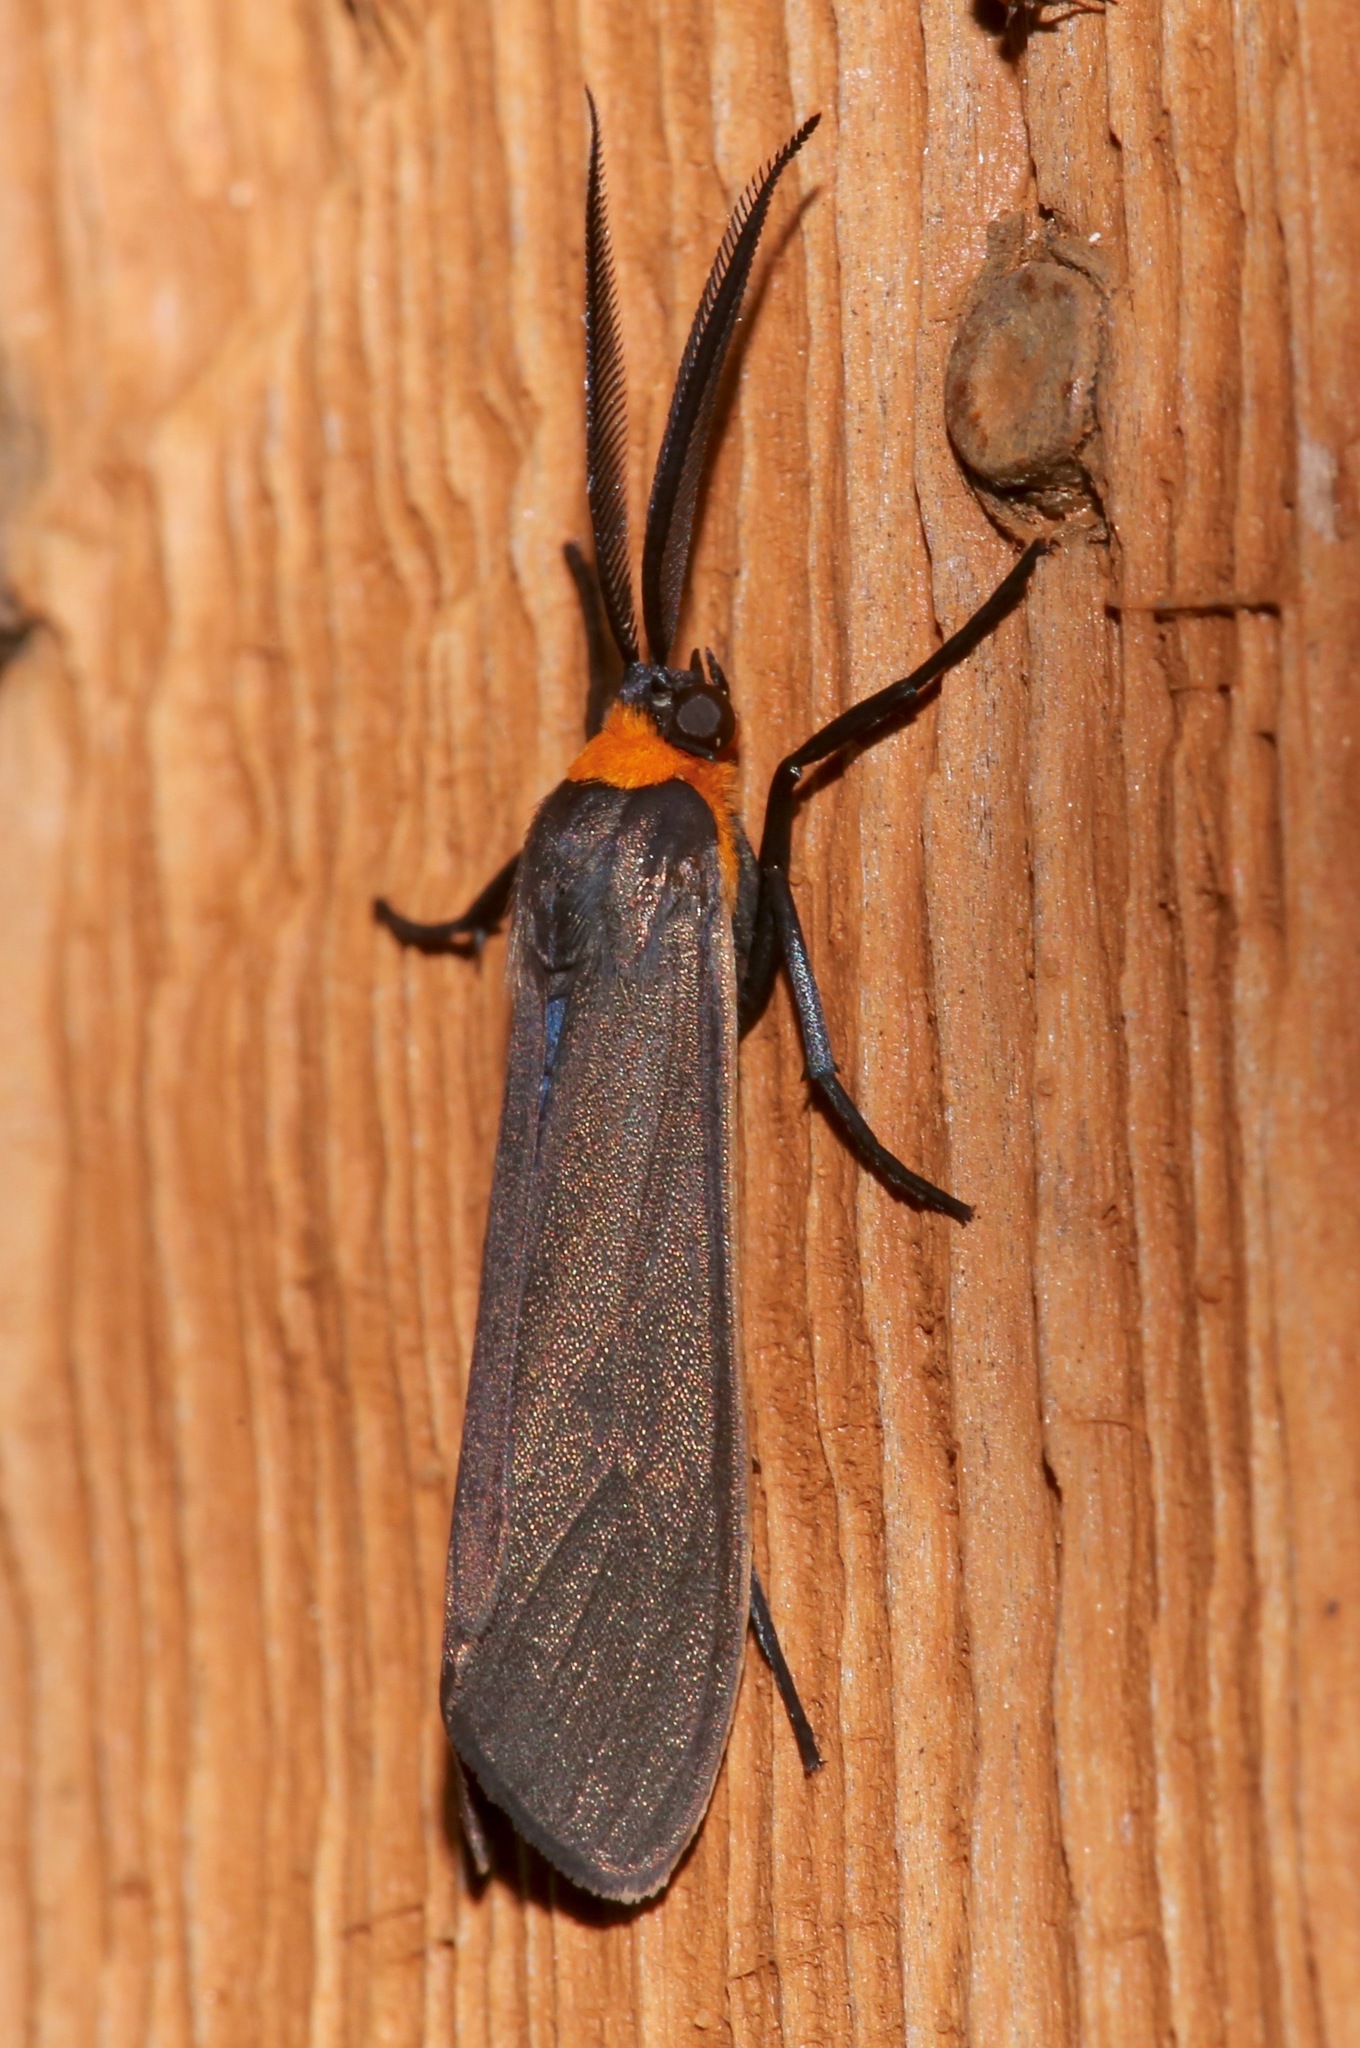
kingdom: Animalia
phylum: Arthropoda
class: Insecta
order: Lepidoptera
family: Erebidae
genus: Cisseps
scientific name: Cisseps fulvicollis
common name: Yellow-collared scape moth
